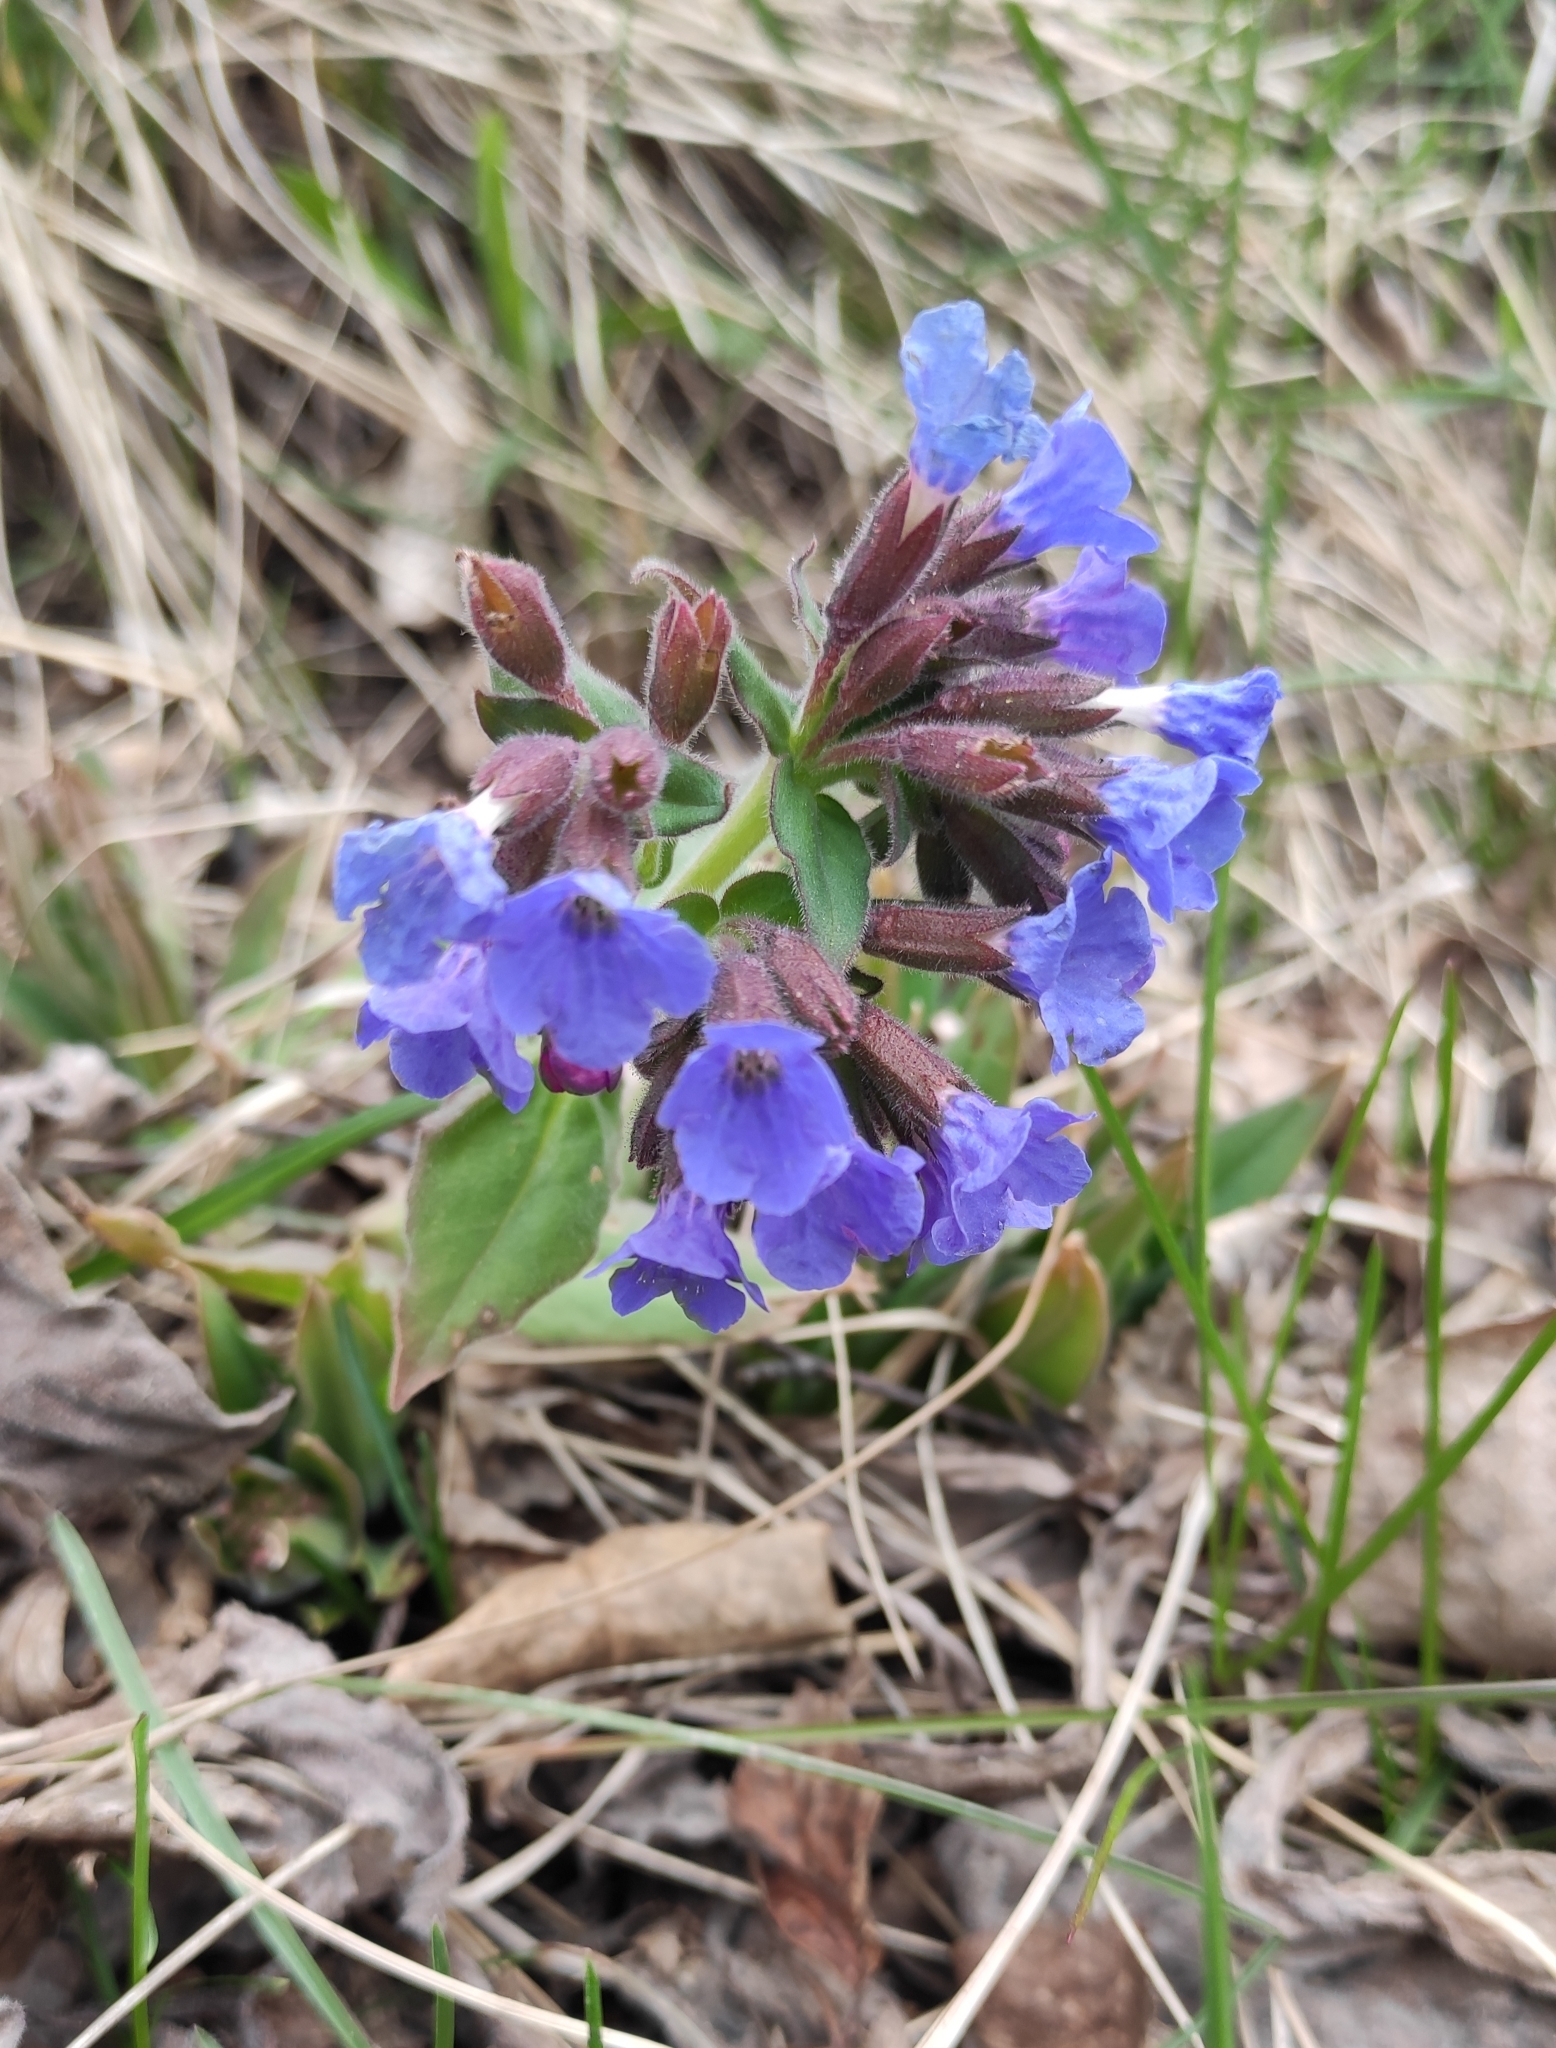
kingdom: Plantae
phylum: Tracheophyta
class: Magnoliopsida
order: Boraginales
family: Boraginaceae
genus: Pulmonaria
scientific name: Pulmonaria mollis
